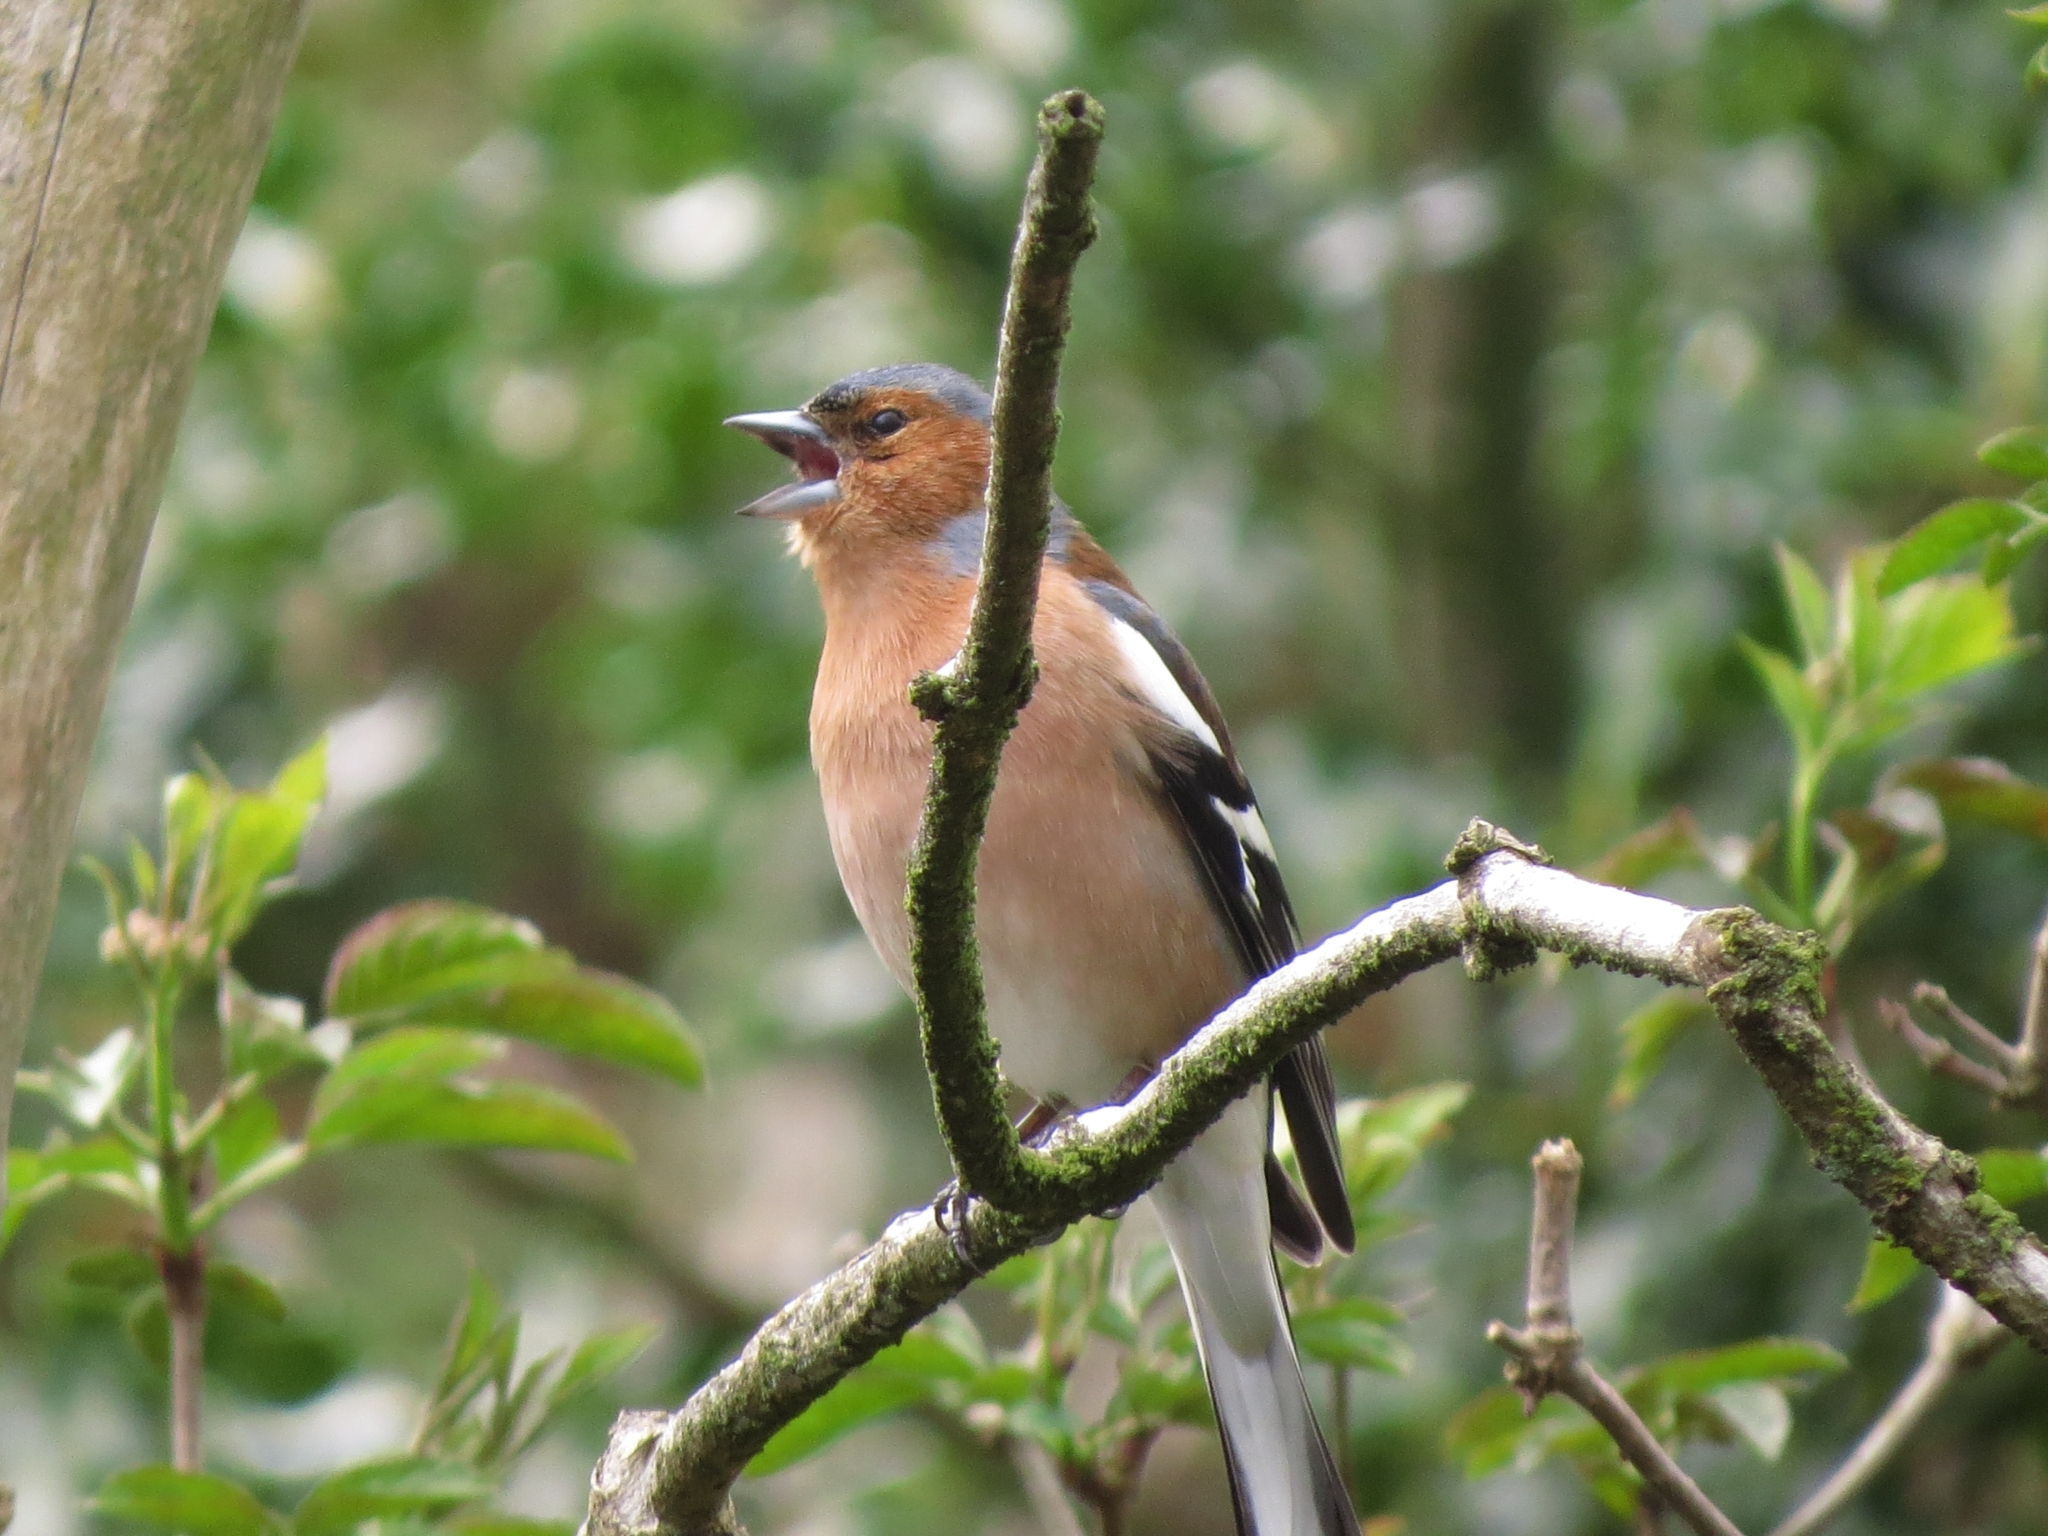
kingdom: Animalia
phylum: Chordata
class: Aves
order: Passeriformes
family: Fringillidae
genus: Fringilla
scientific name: Fringilla coelebs
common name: Common chaffinch
